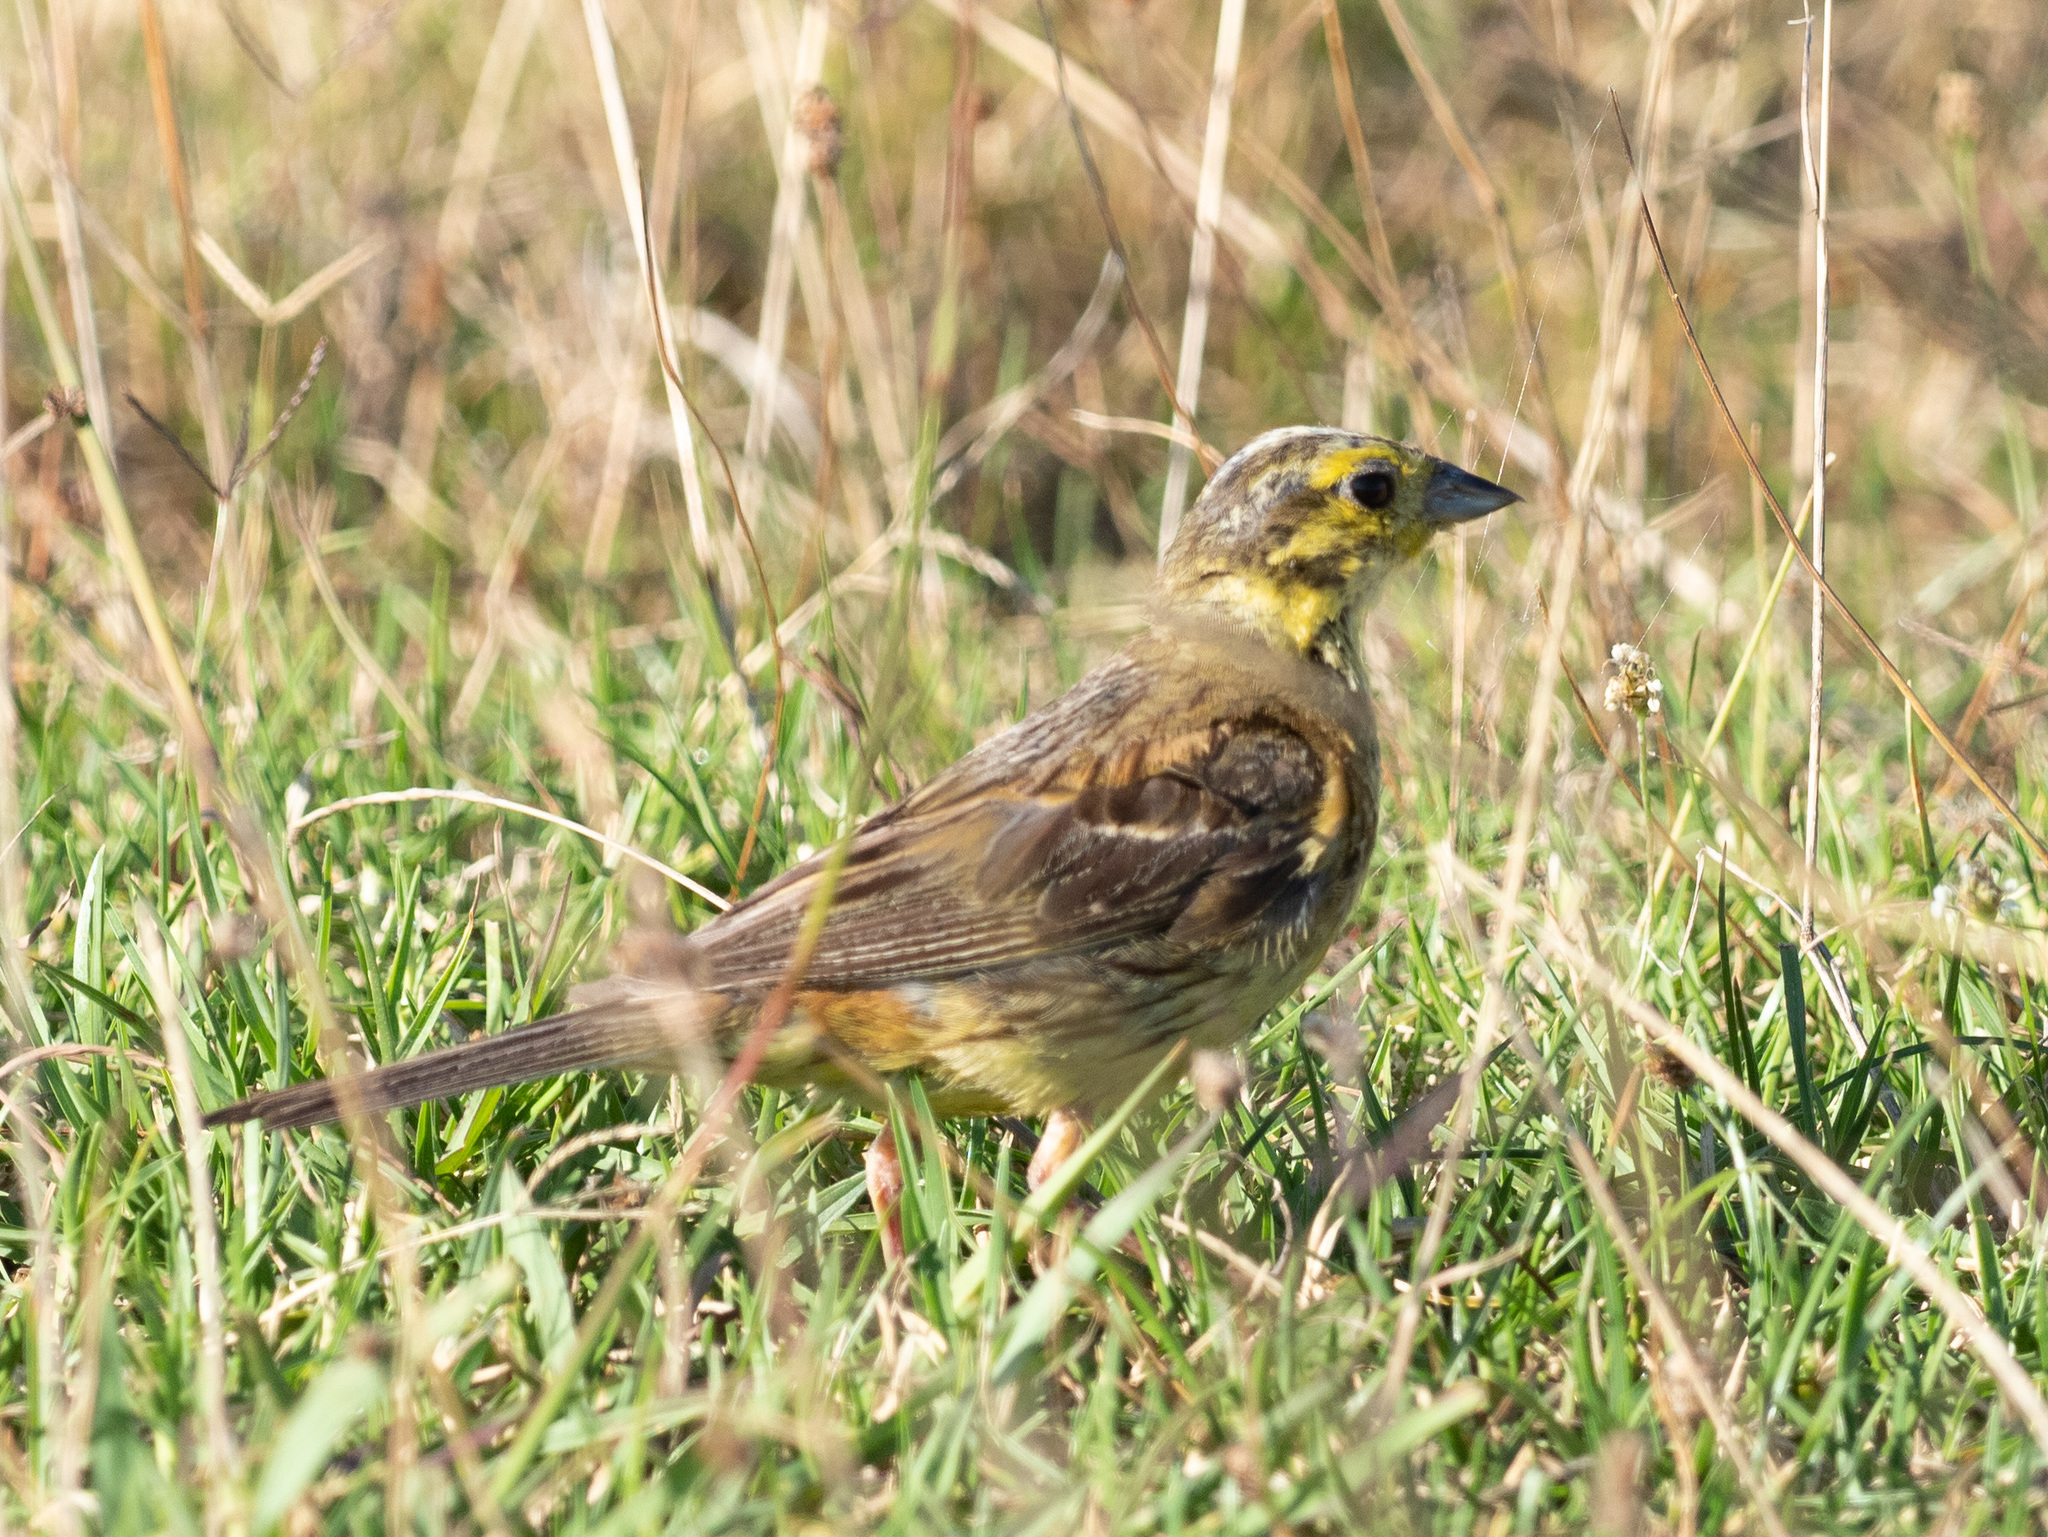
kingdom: Animalia
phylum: Chordata
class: Aves
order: Passeriformes
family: Emberizidae
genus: Emberiza
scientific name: Emberiza citrinella
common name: Yellowhammer
